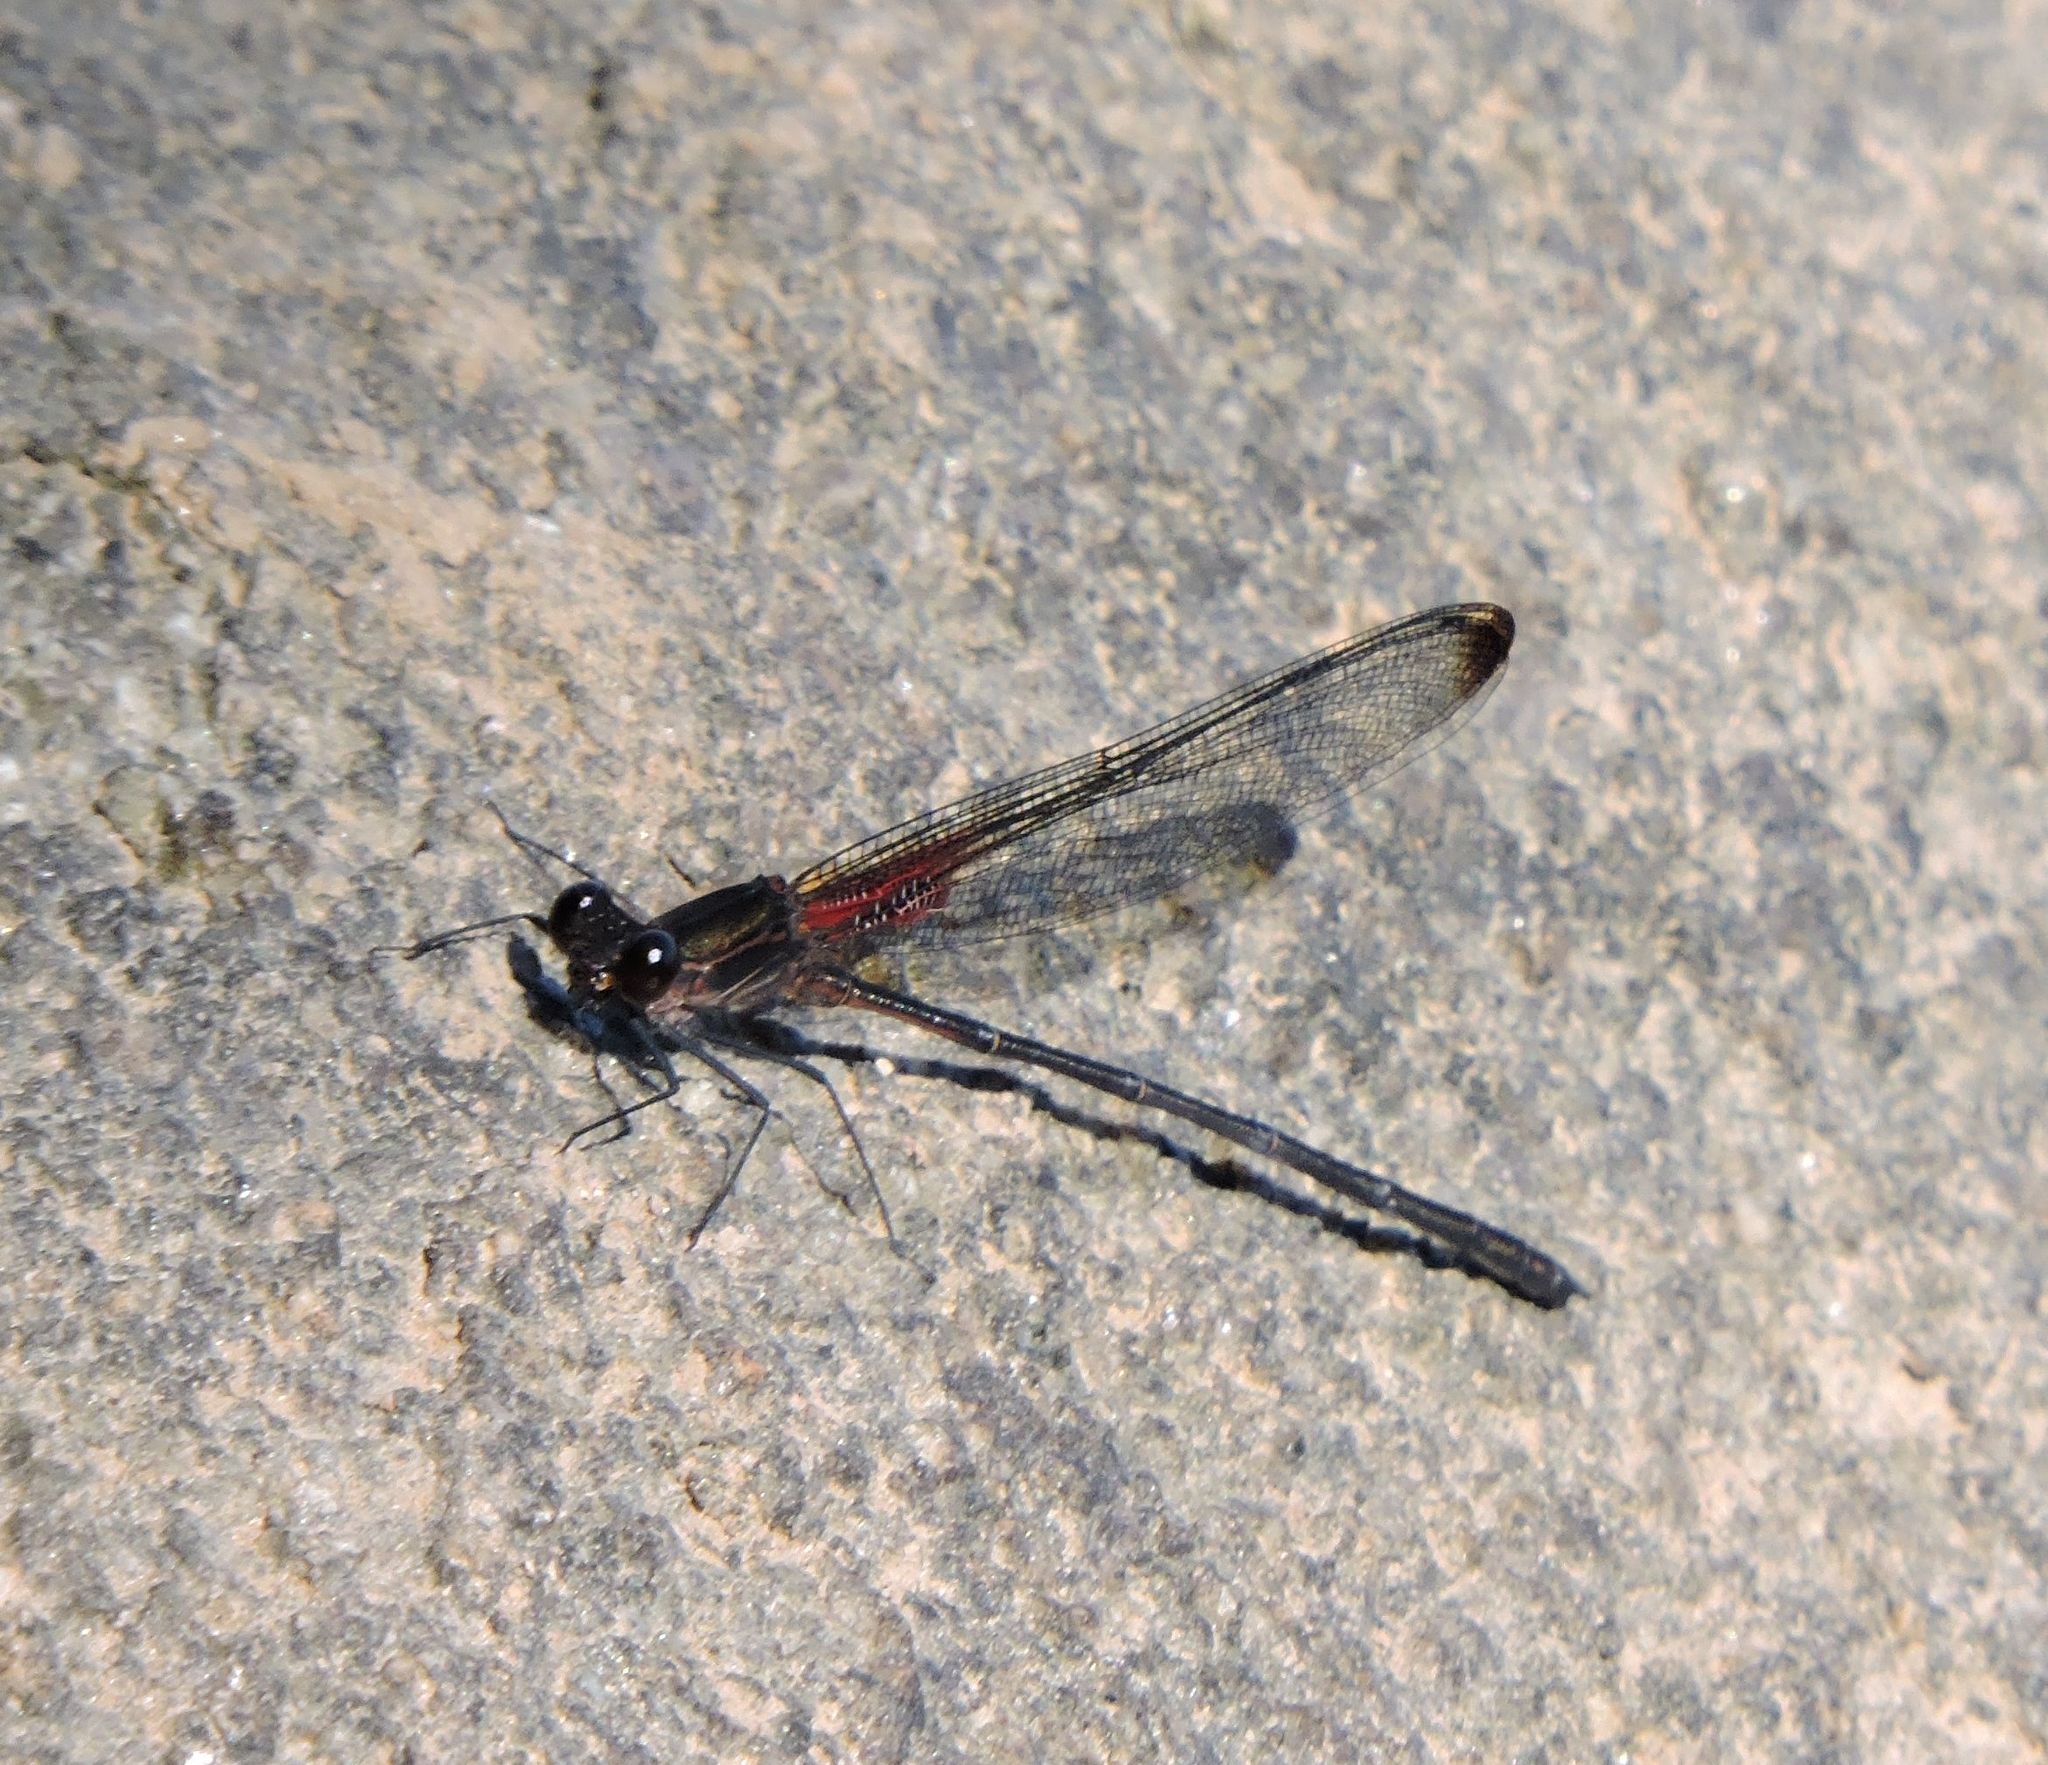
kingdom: Animalia
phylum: Arthropoda
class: Insecta
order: Odonata
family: Calopterygidae
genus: Hetaerina
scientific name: Hetaerina titia
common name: Smoky rubyspot
